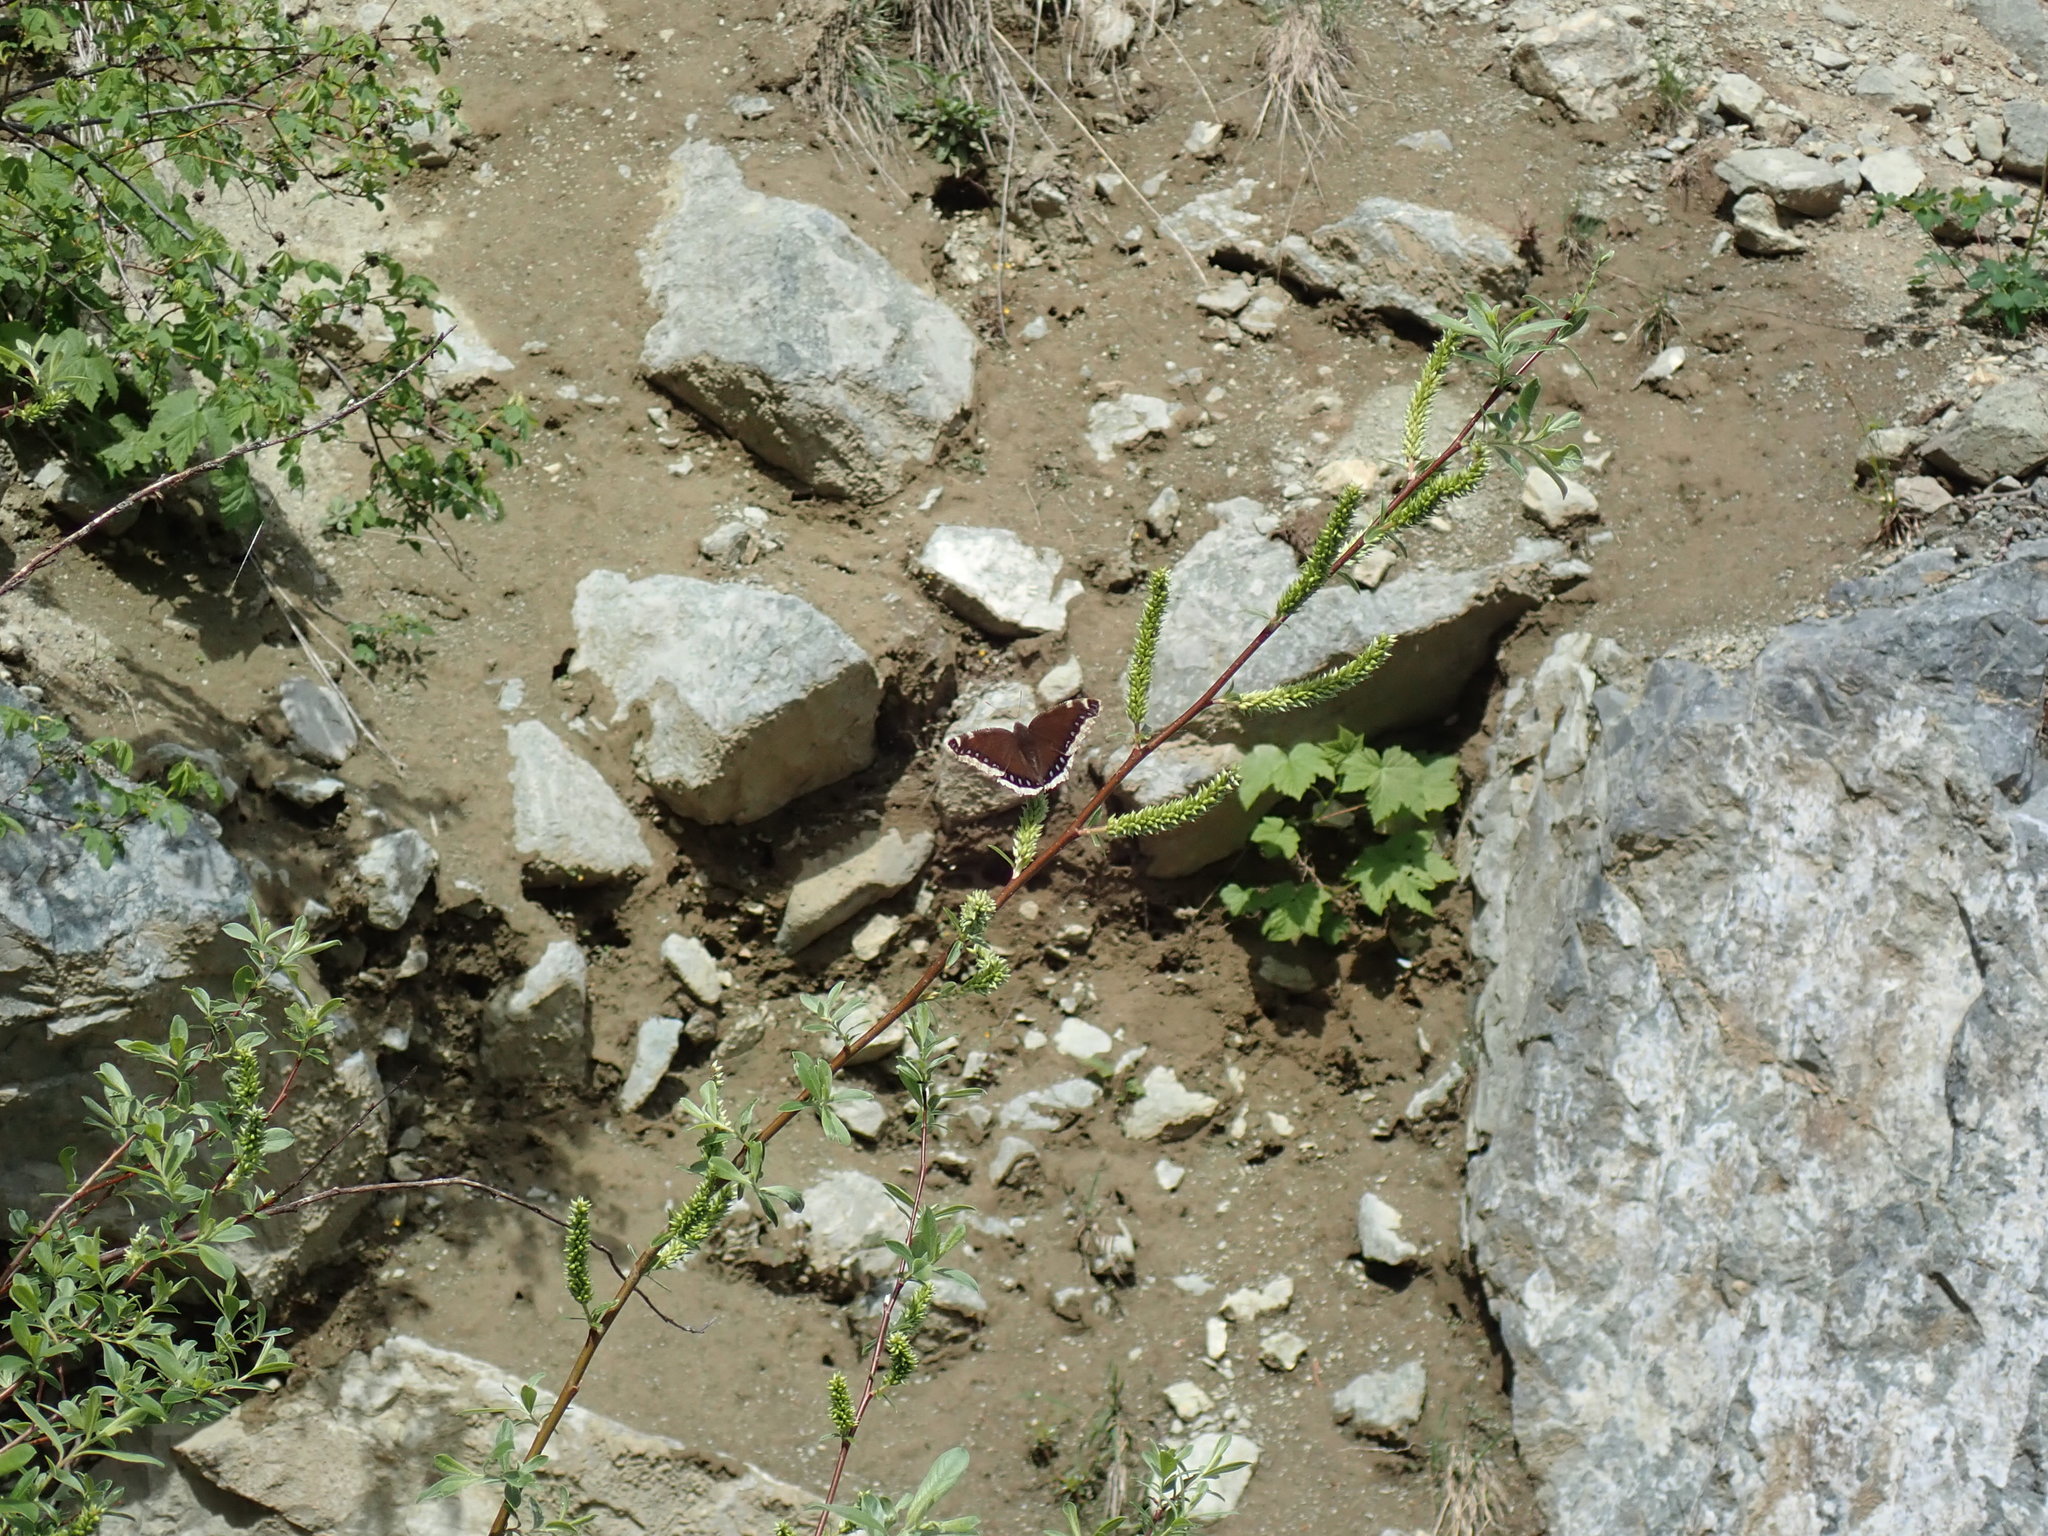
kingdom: Animalia
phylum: Arthropoda
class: Insecta
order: Lepidoptera
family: Nymphalidae
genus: Nymphalis
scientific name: Nymphalis antiopa
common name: Camberwell beauty
